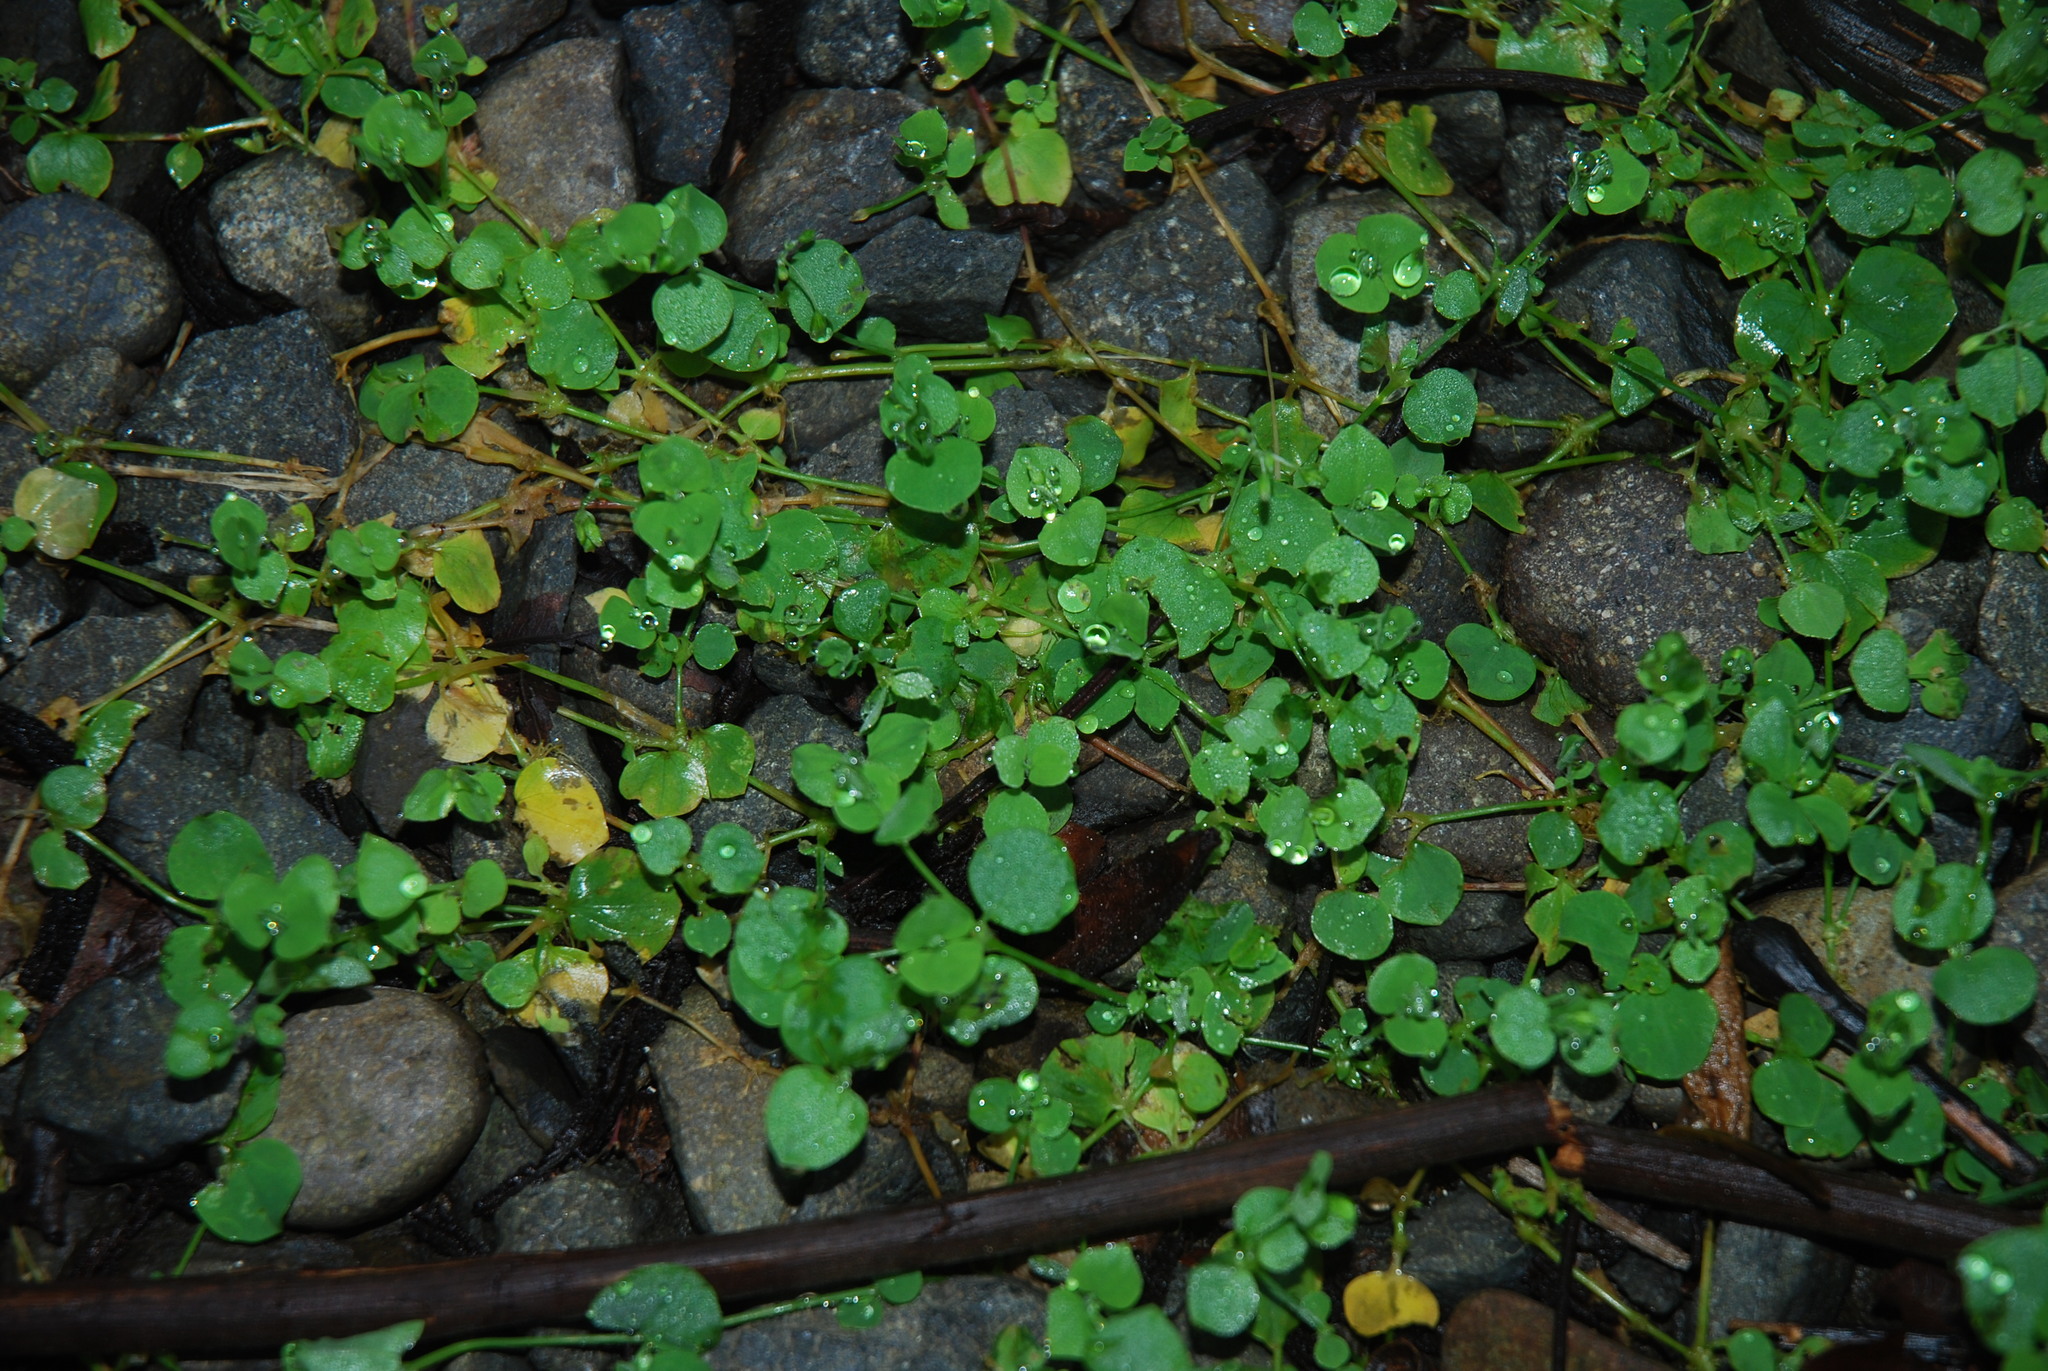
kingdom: Plantae
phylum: Tracheophyta
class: Magnoliopsida
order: Caryophyllales
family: Caryophyllaceae
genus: Drymaria
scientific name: Drymaria cordata
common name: Whitesnow
